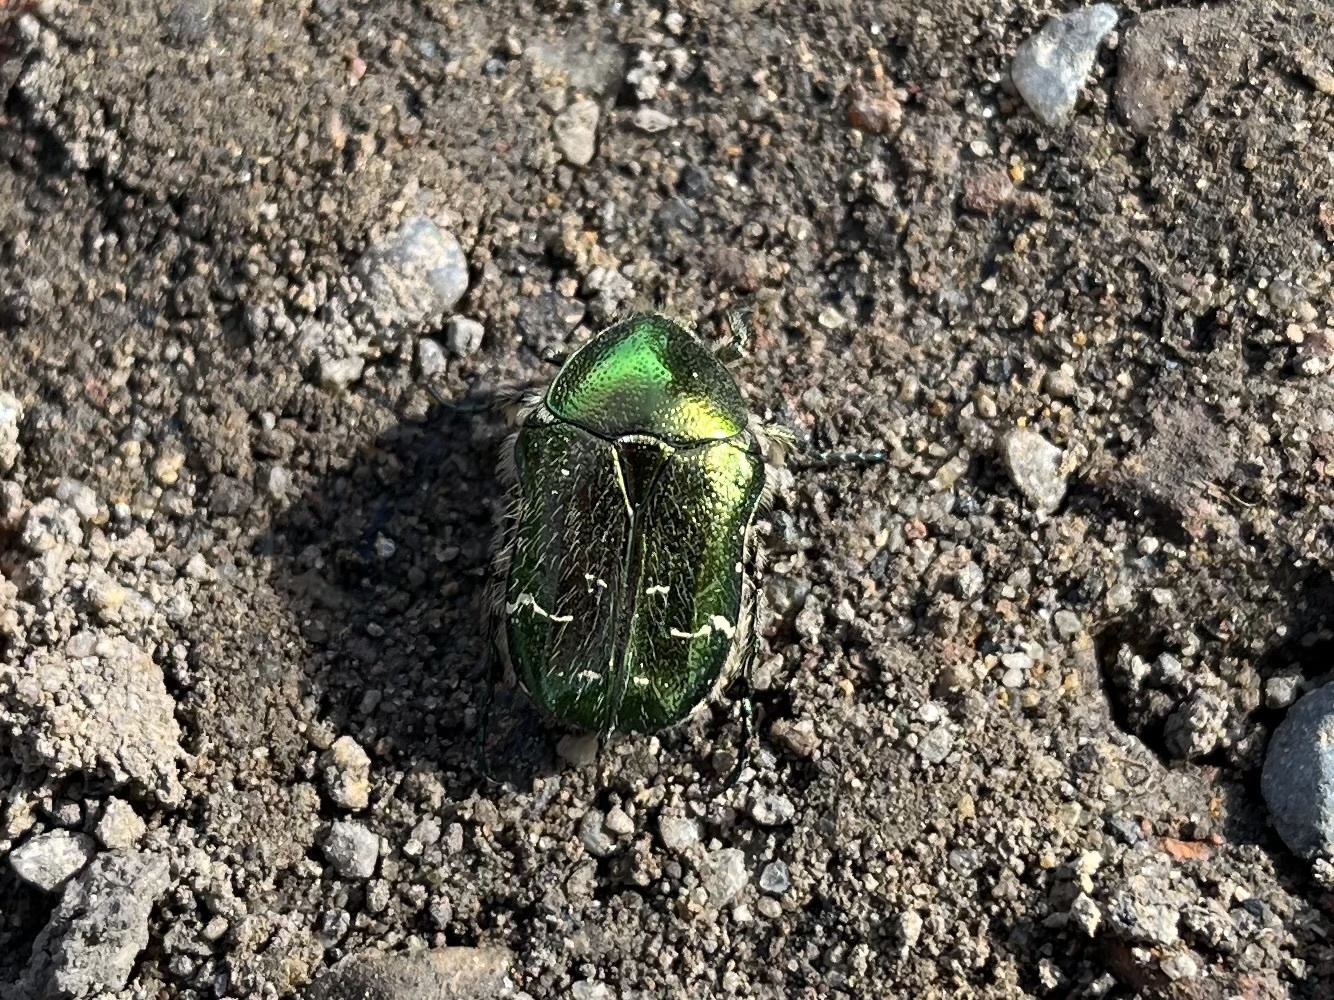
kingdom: Animalia
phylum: Arthropoda
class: Insecta
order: Coleoptera
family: Scarabaeidae
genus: Cetonia
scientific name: Cetonia aurata
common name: Rose chafer
